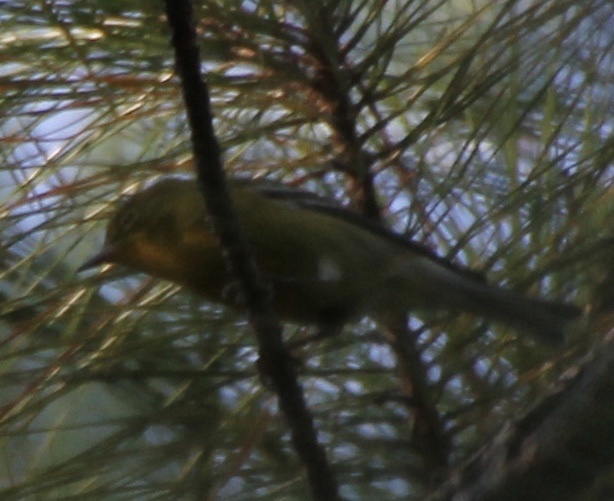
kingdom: Animalia
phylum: Chordata
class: Aves
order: Passeriformes
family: Parulidae
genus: Setophaga
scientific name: Setophaga pinus
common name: Pine warbler
